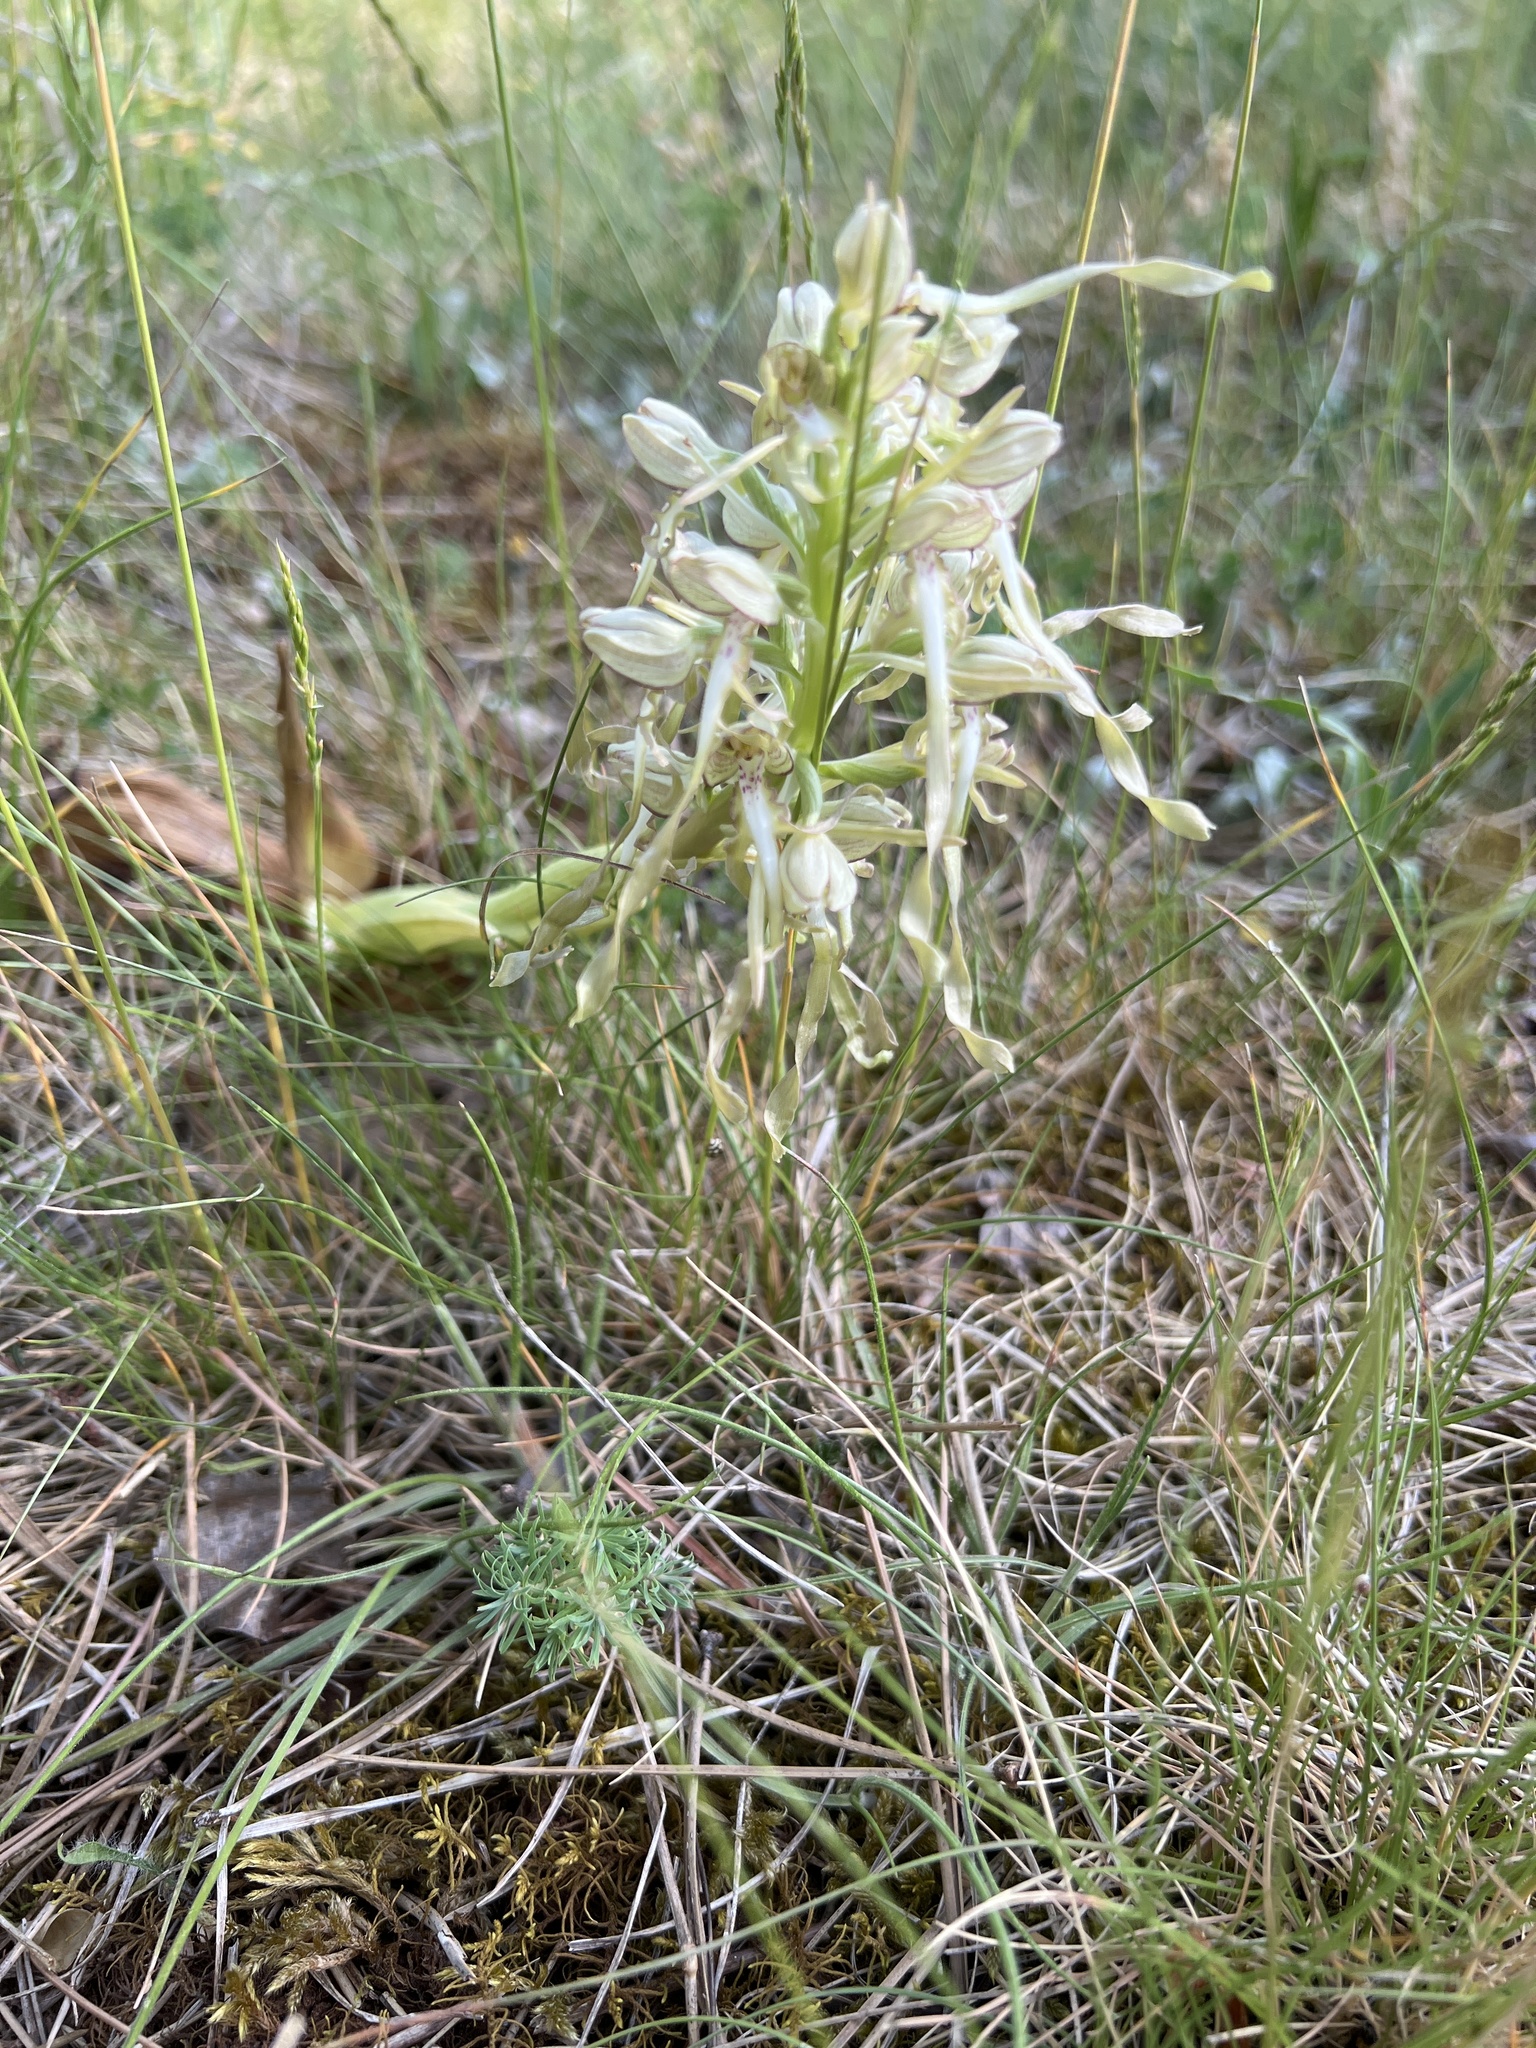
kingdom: Plantae
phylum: Tracheophyta
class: Liliopsida
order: Asparagales
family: Orchidaceae
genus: Himantoglossum
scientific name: Himantoglossum hircinum
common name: Lizard orchid
